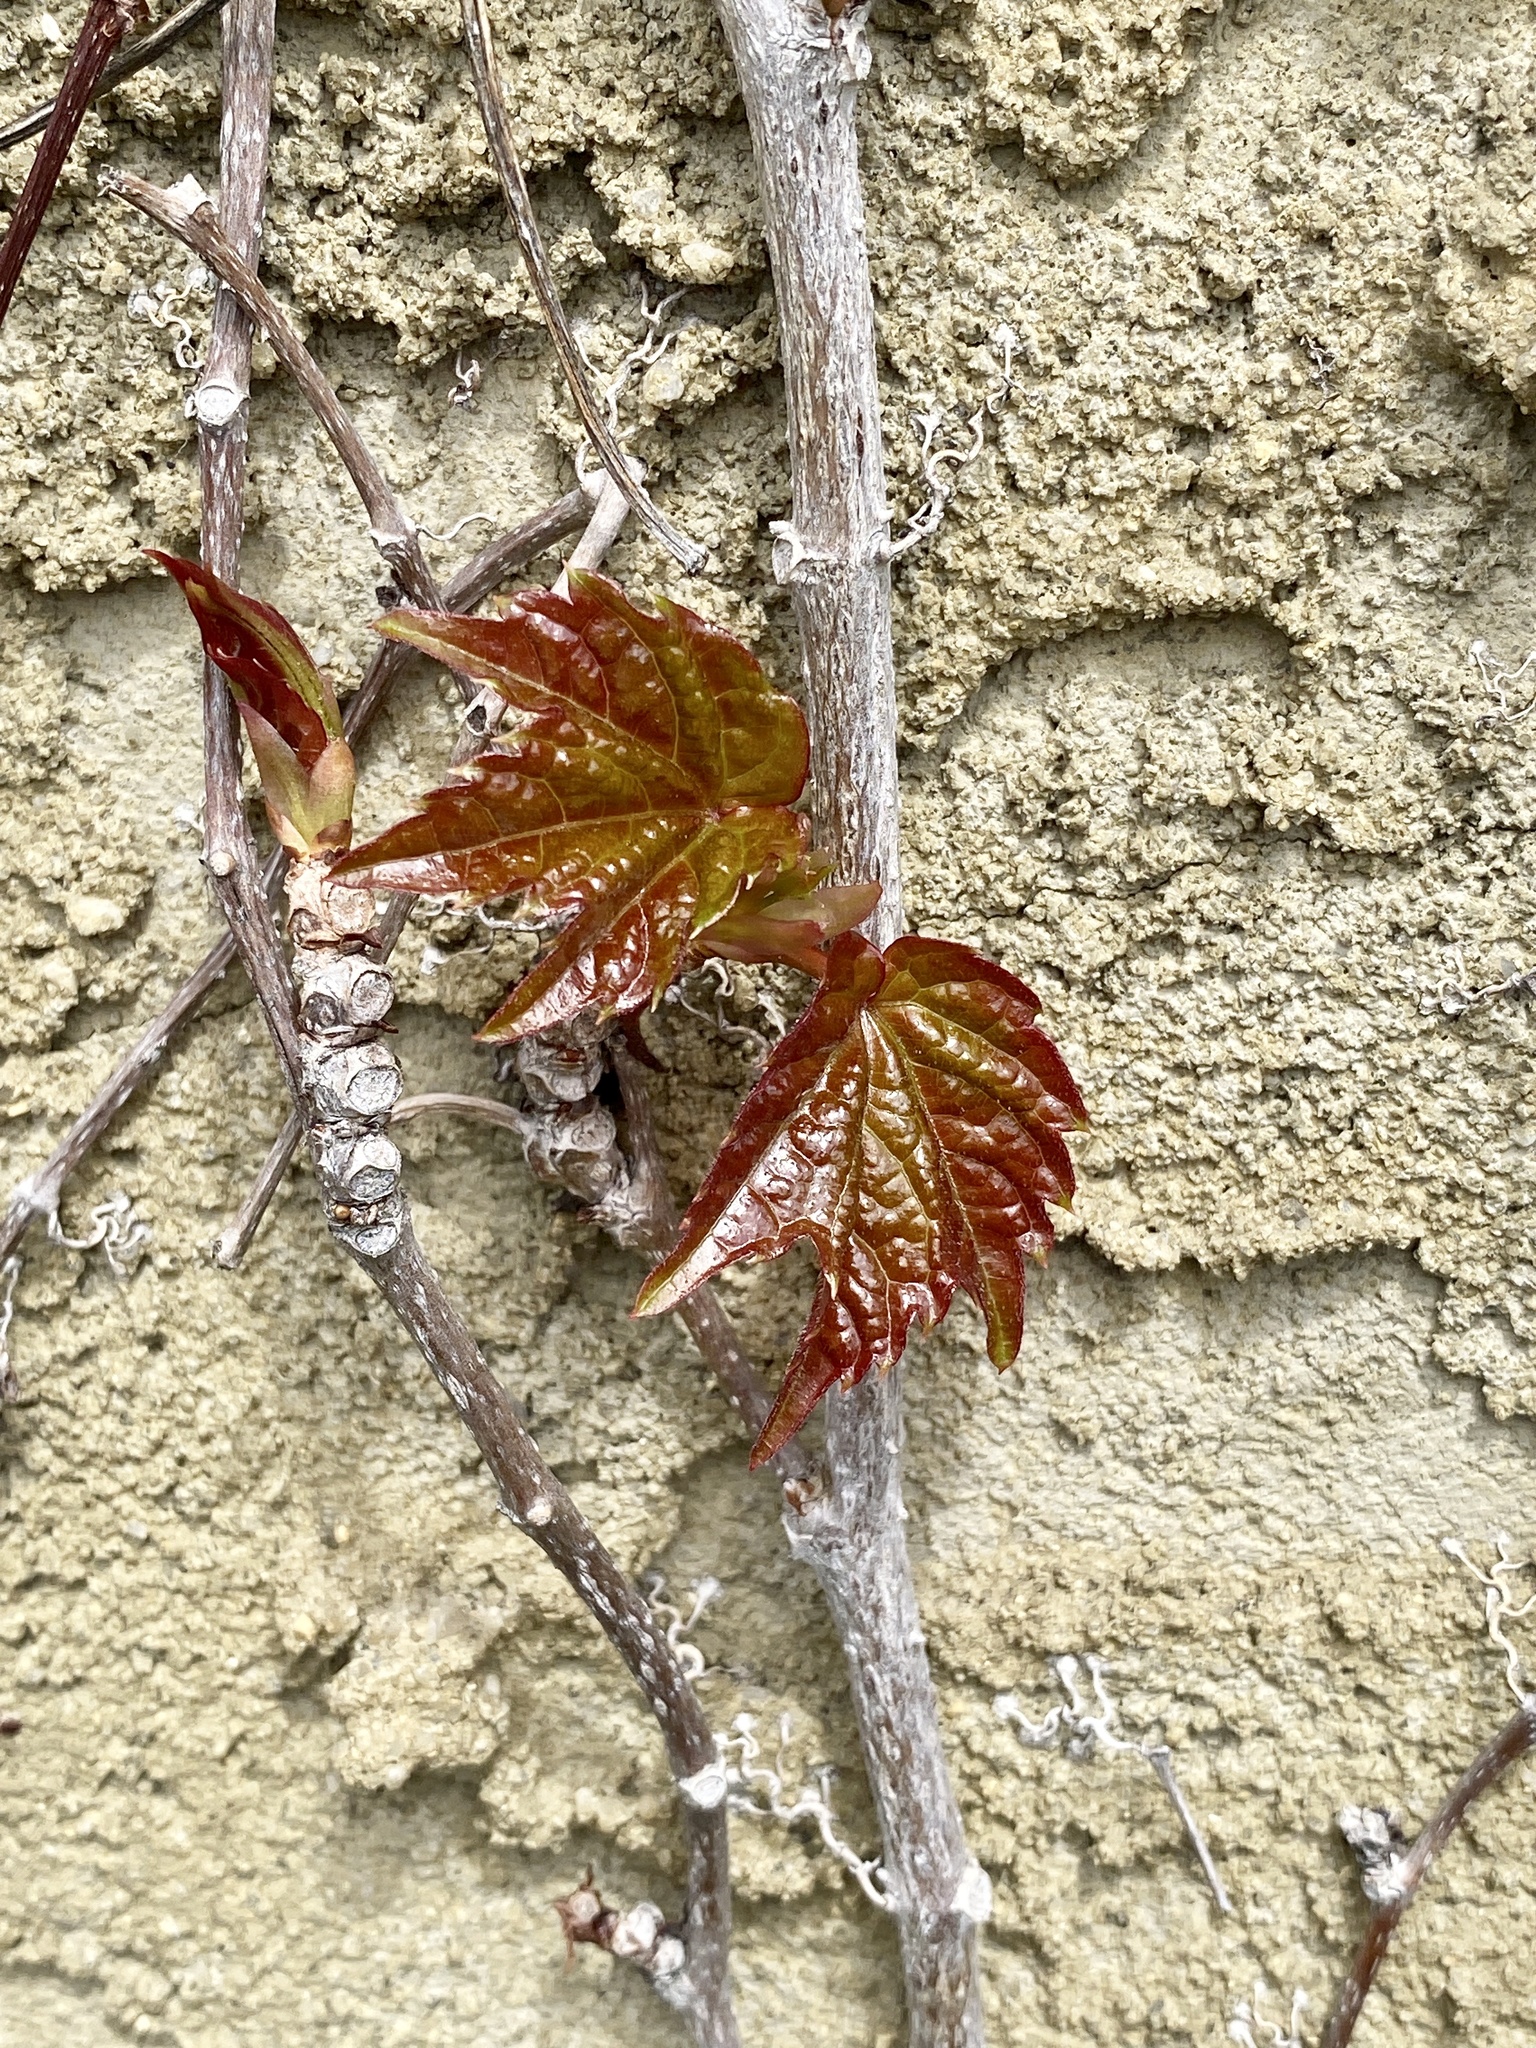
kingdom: Plantae
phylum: Tracheophyta
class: Magnoliopsida
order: Vitales
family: Vitaceae
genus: Parthenocissus
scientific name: Parthenocissus tricuspidata
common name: Boston ivy
